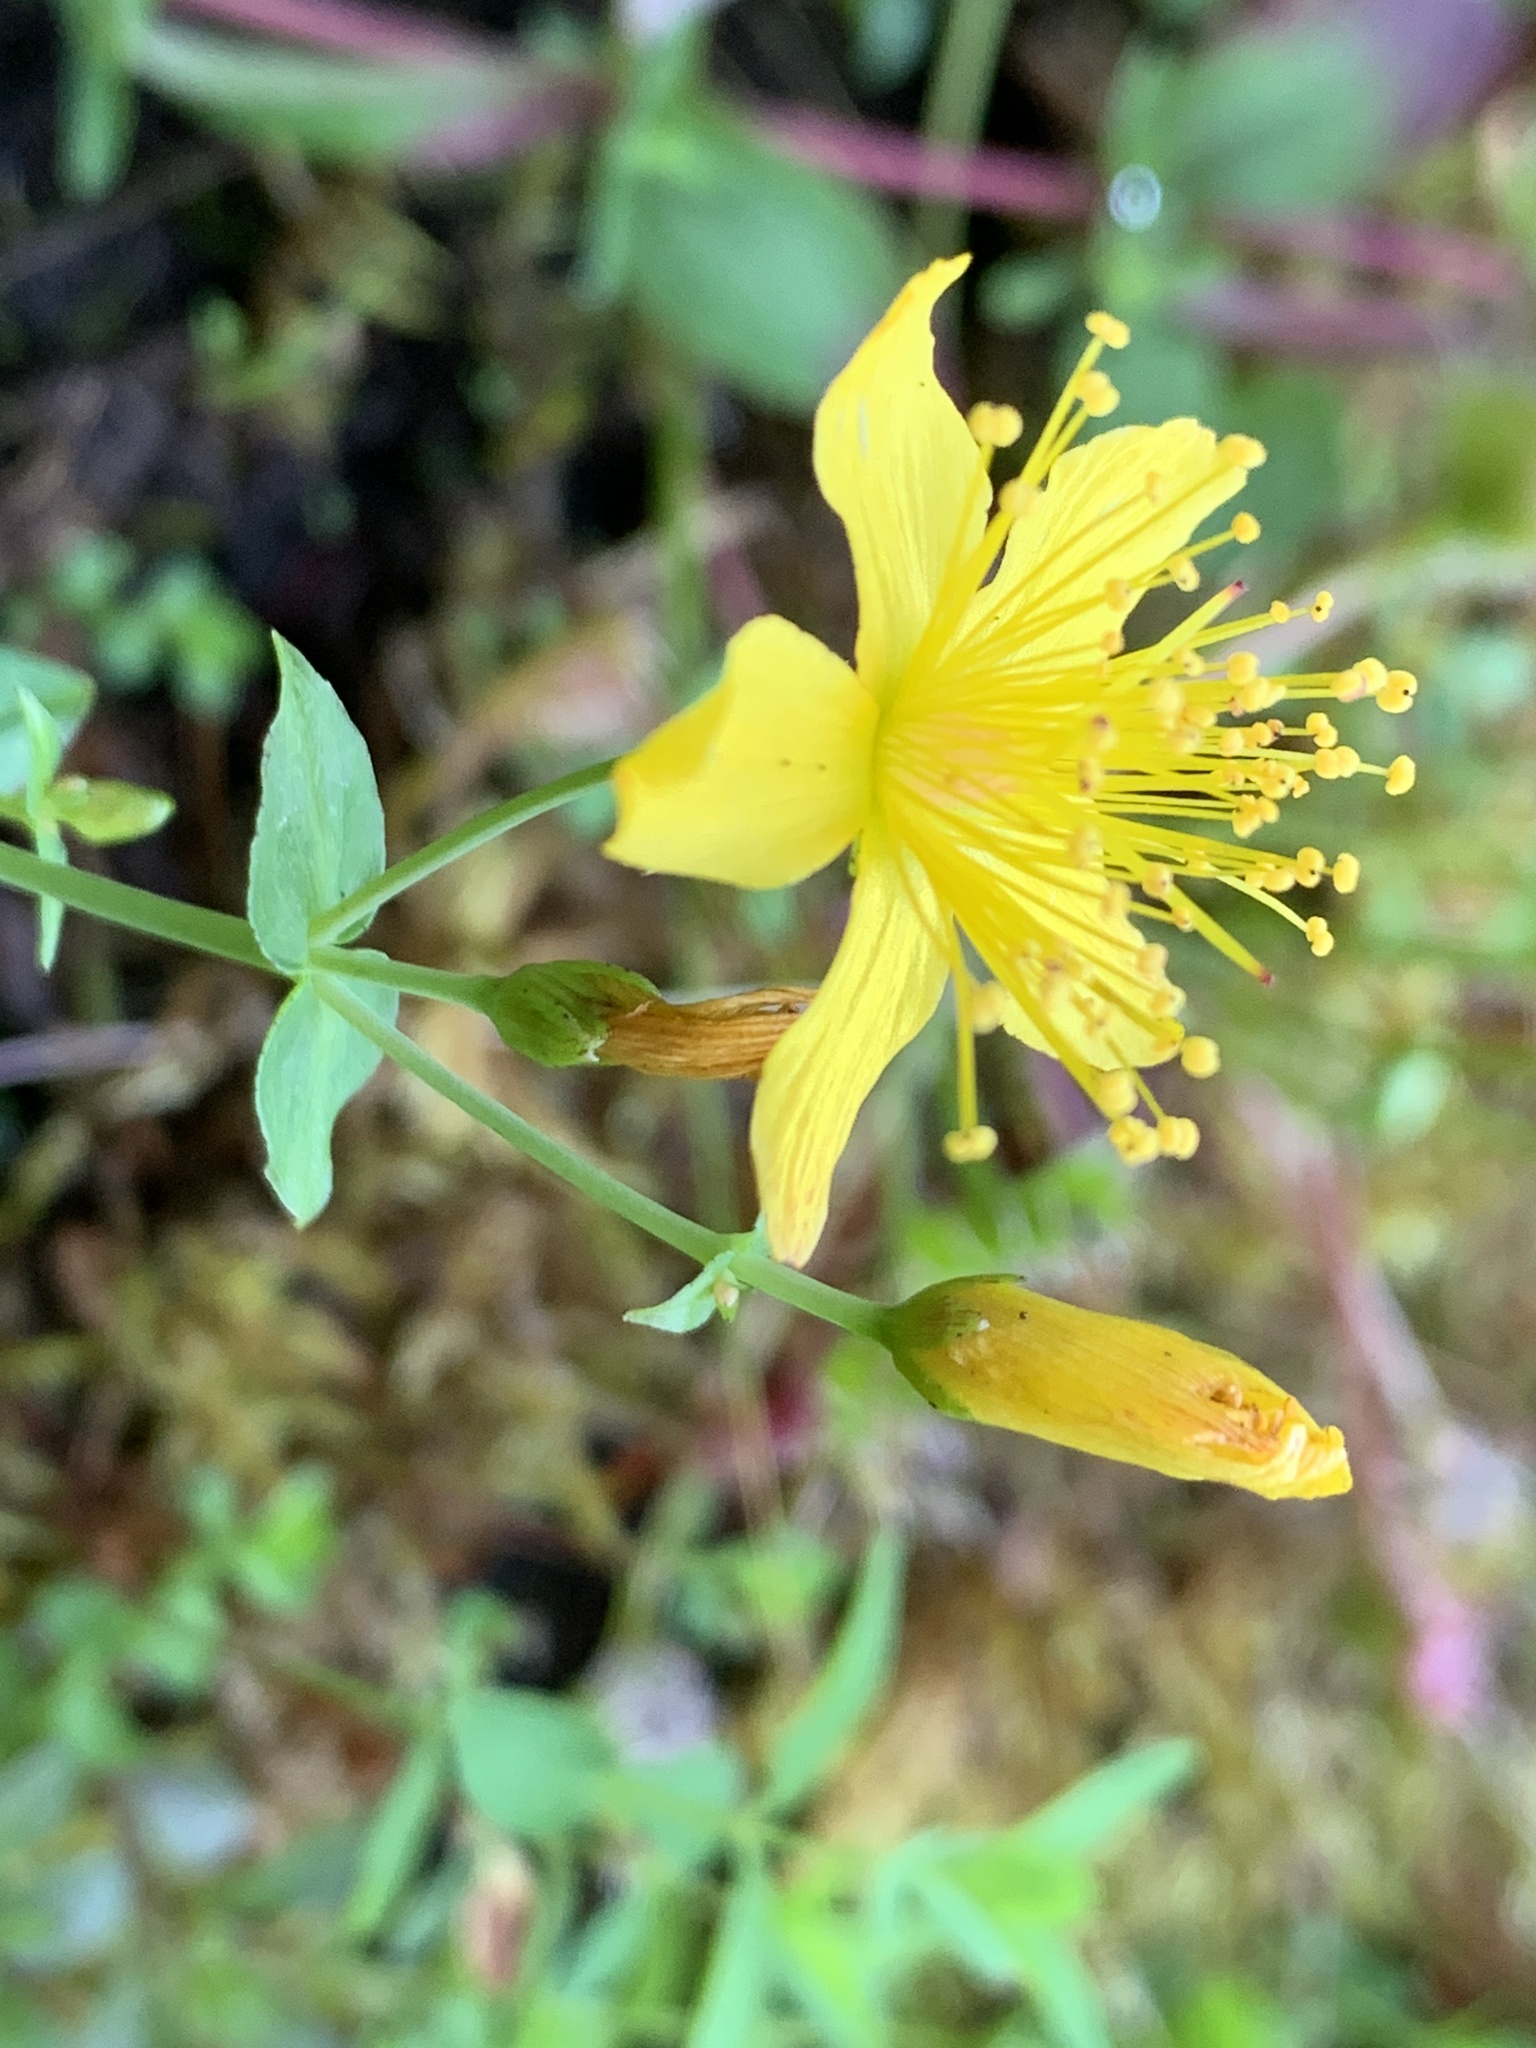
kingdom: Plantae
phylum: Tracheophyta
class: Magnoliopsida
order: Malpighiales
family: Hypericaceae
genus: Hypericum
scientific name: Hypericum scouleri
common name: Scouler's st. john's-wort
